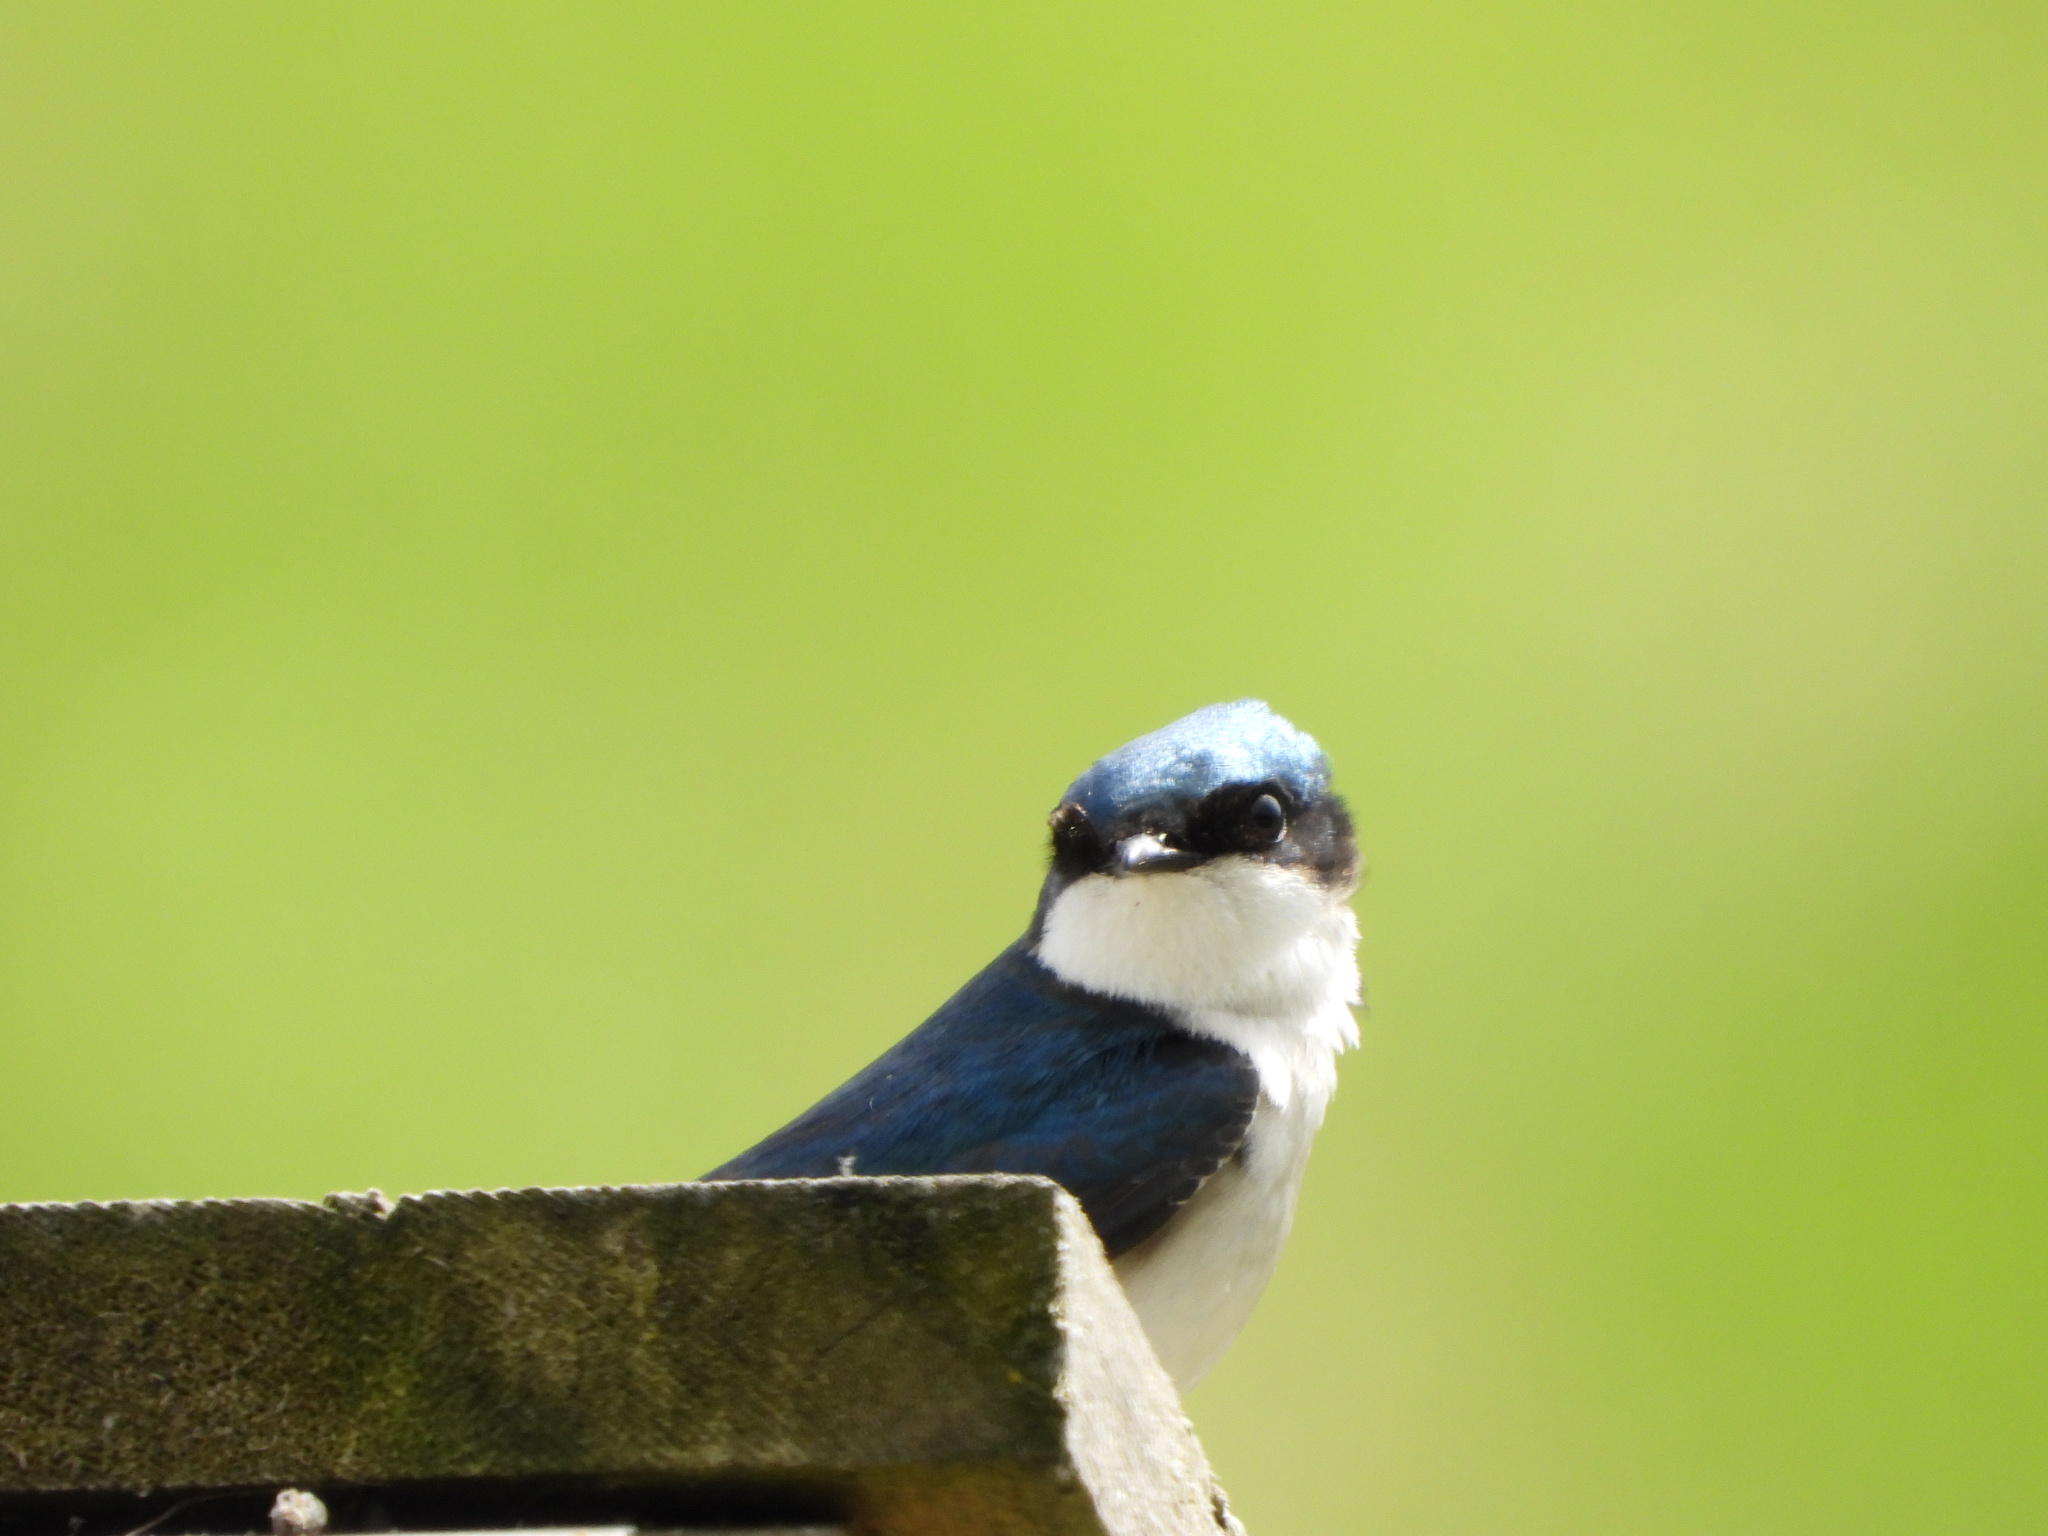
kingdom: Animalia
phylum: Chordata
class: Aves
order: Passeriformes
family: Hirundinidae
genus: Tachycineta
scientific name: Tachycineta bicolor
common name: Tree swallow
